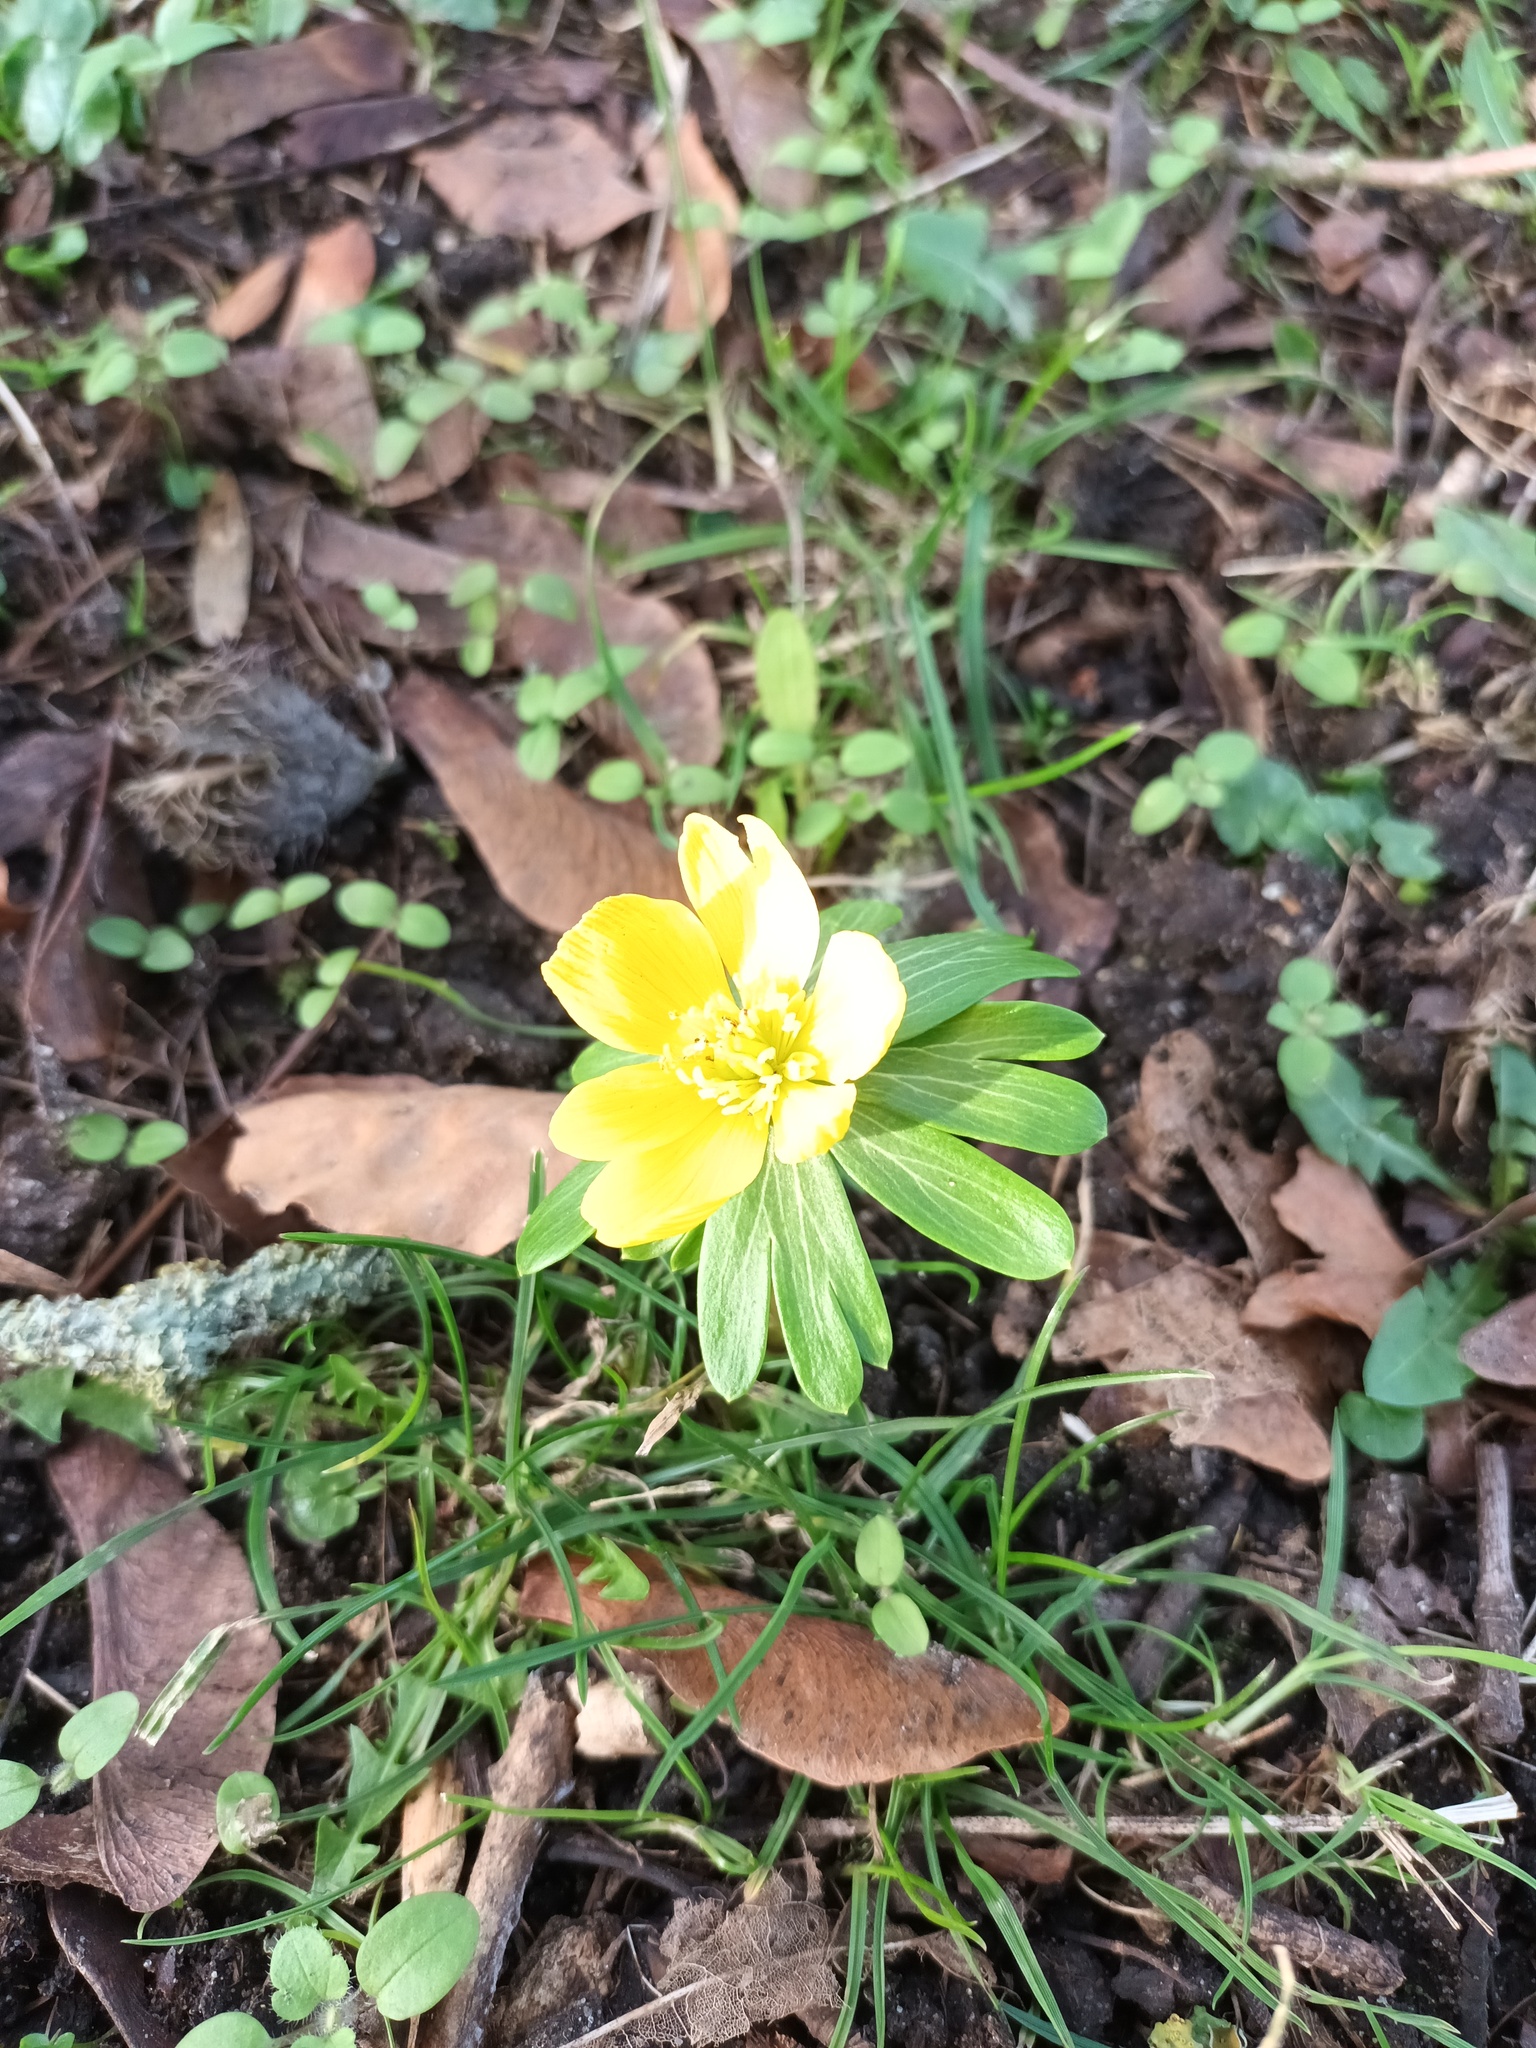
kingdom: Plantae
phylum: Tracheophyta
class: Magnoliopsida
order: Ranunculales
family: Ranunculaceae
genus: Eranthis
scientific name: Eranthis hyemalis
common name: Winter aconite
